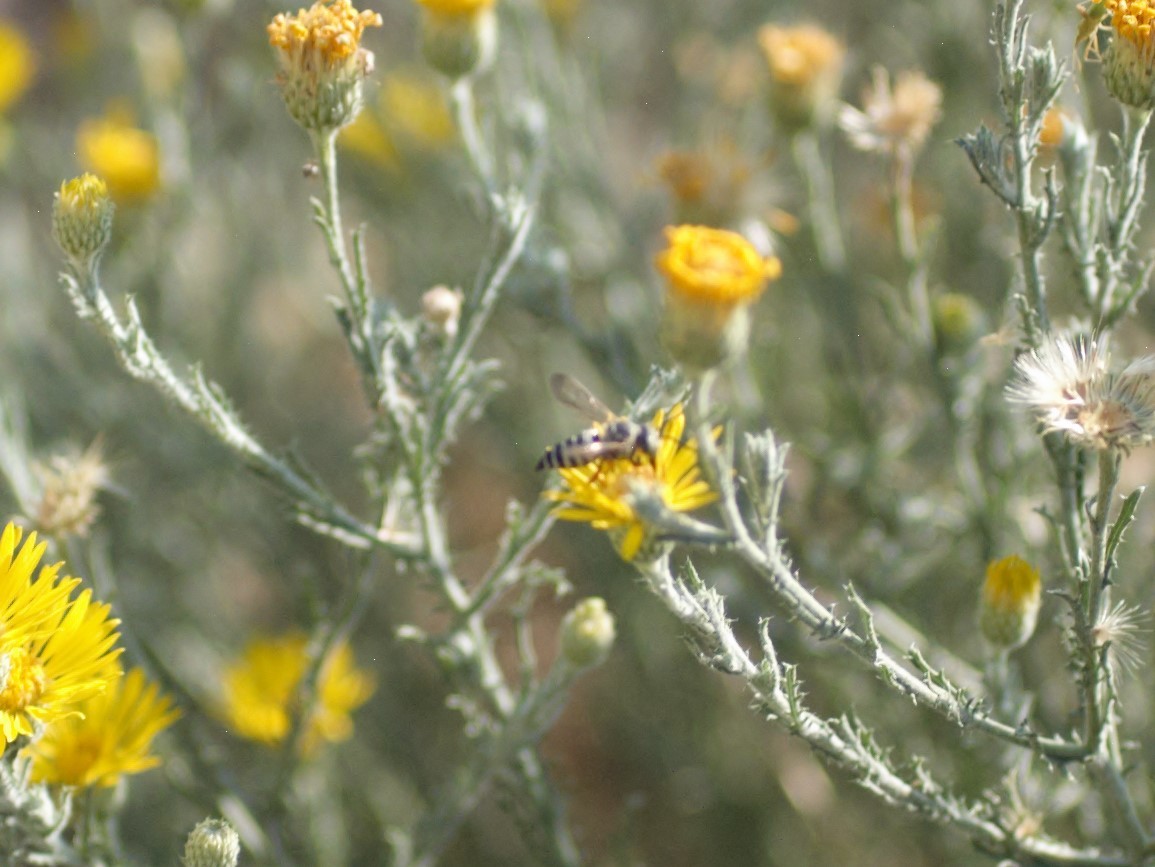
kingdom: Animalia
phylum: Arthropoda
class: Insecta
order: Hymenoptera
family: Megachilidae
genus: Coelioxys
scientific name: Coelioxys
